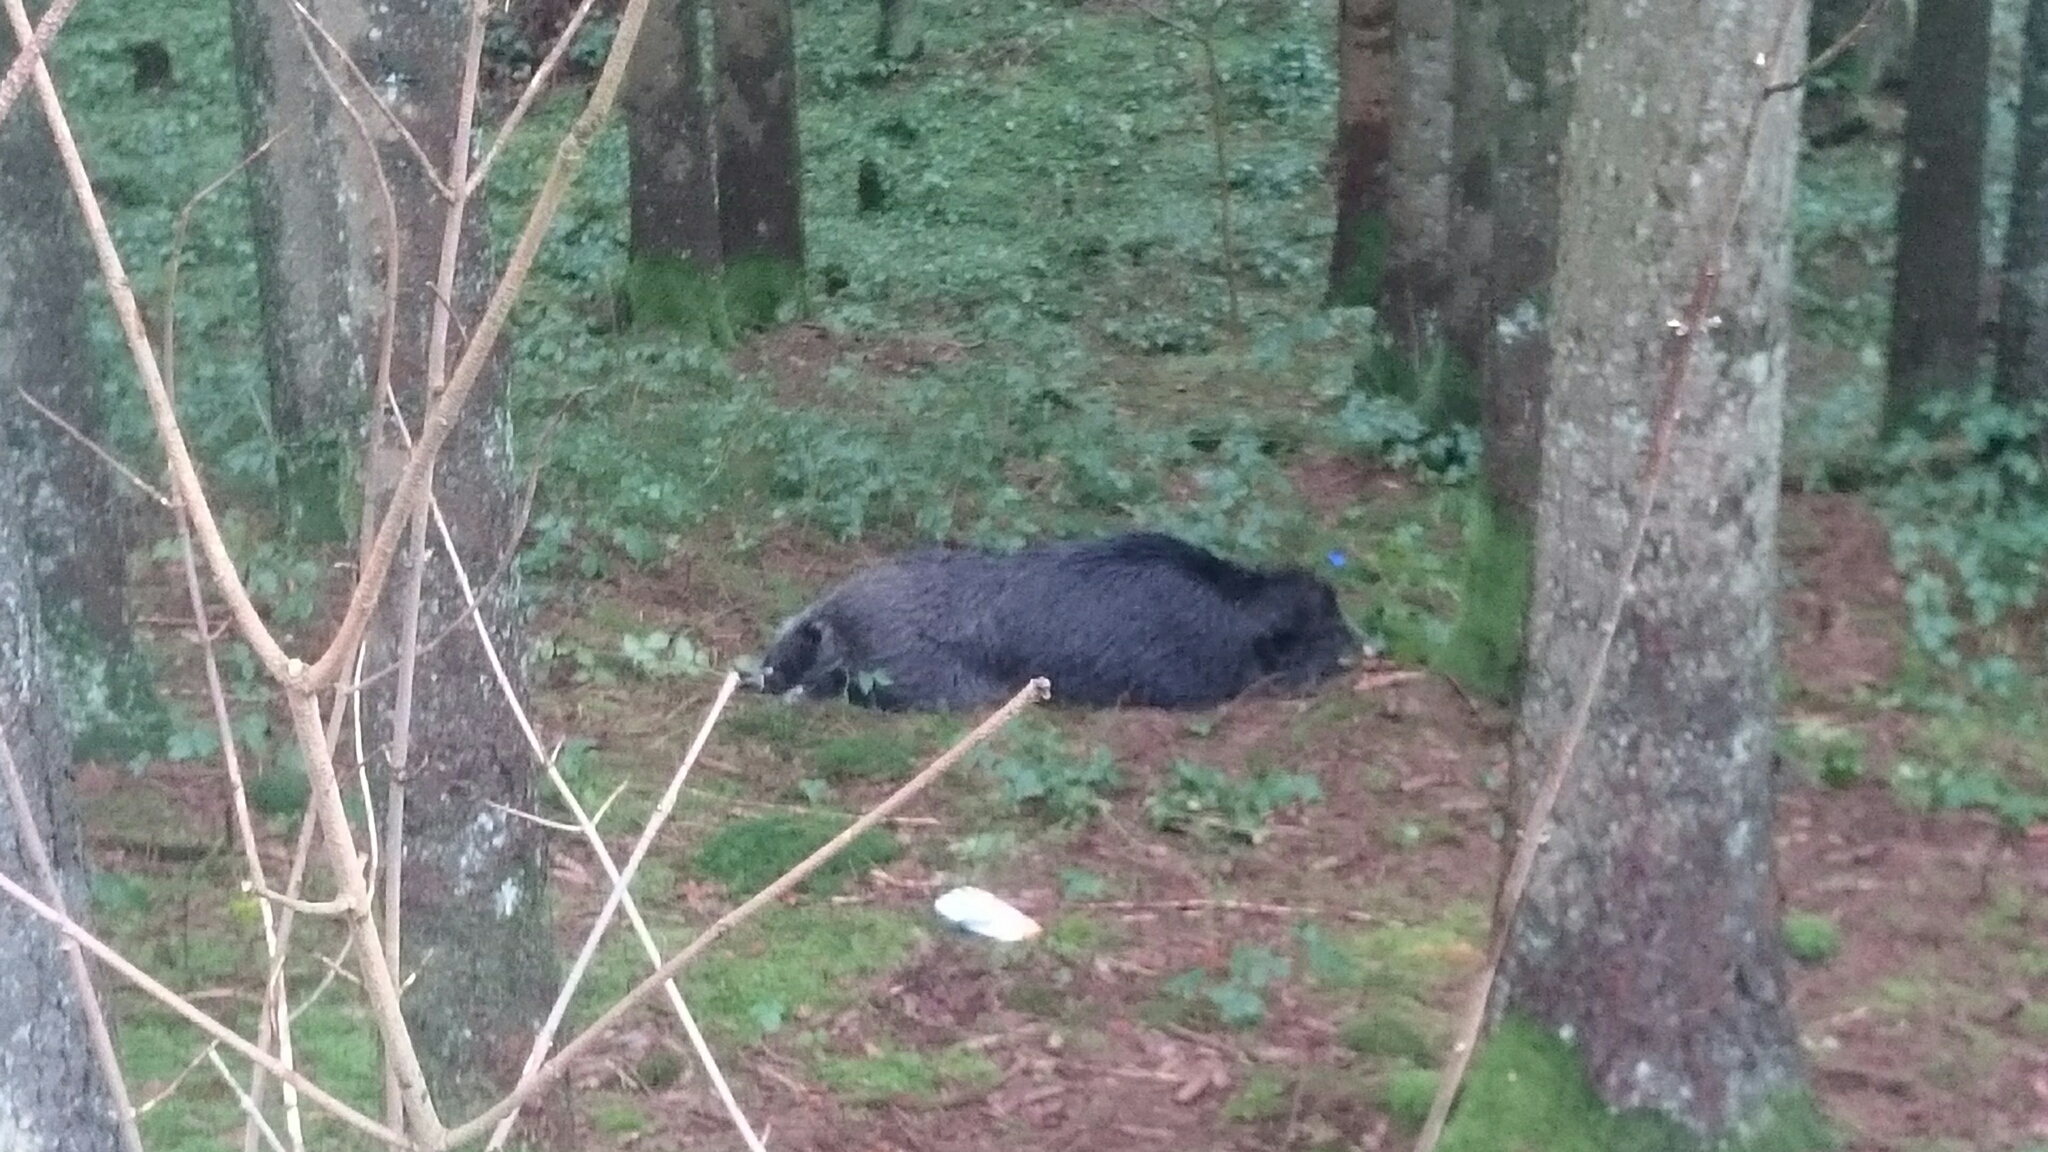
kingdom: Animalia
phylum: Chordata
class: Mammalia
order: Artiodactyla
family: Suidae
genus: Sus
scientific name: Sus scrofa
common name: Wild boar
